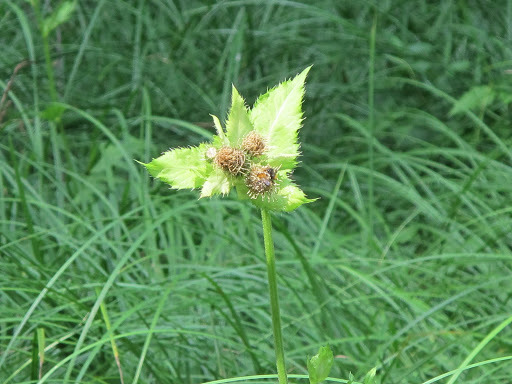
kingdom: Plantae
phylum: Tracheophyta
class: Magnoliopsida
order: Asterales
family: Asteraceae
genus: Cirsium
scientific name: Cirsium oleraceum
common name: Cabbage thistle
